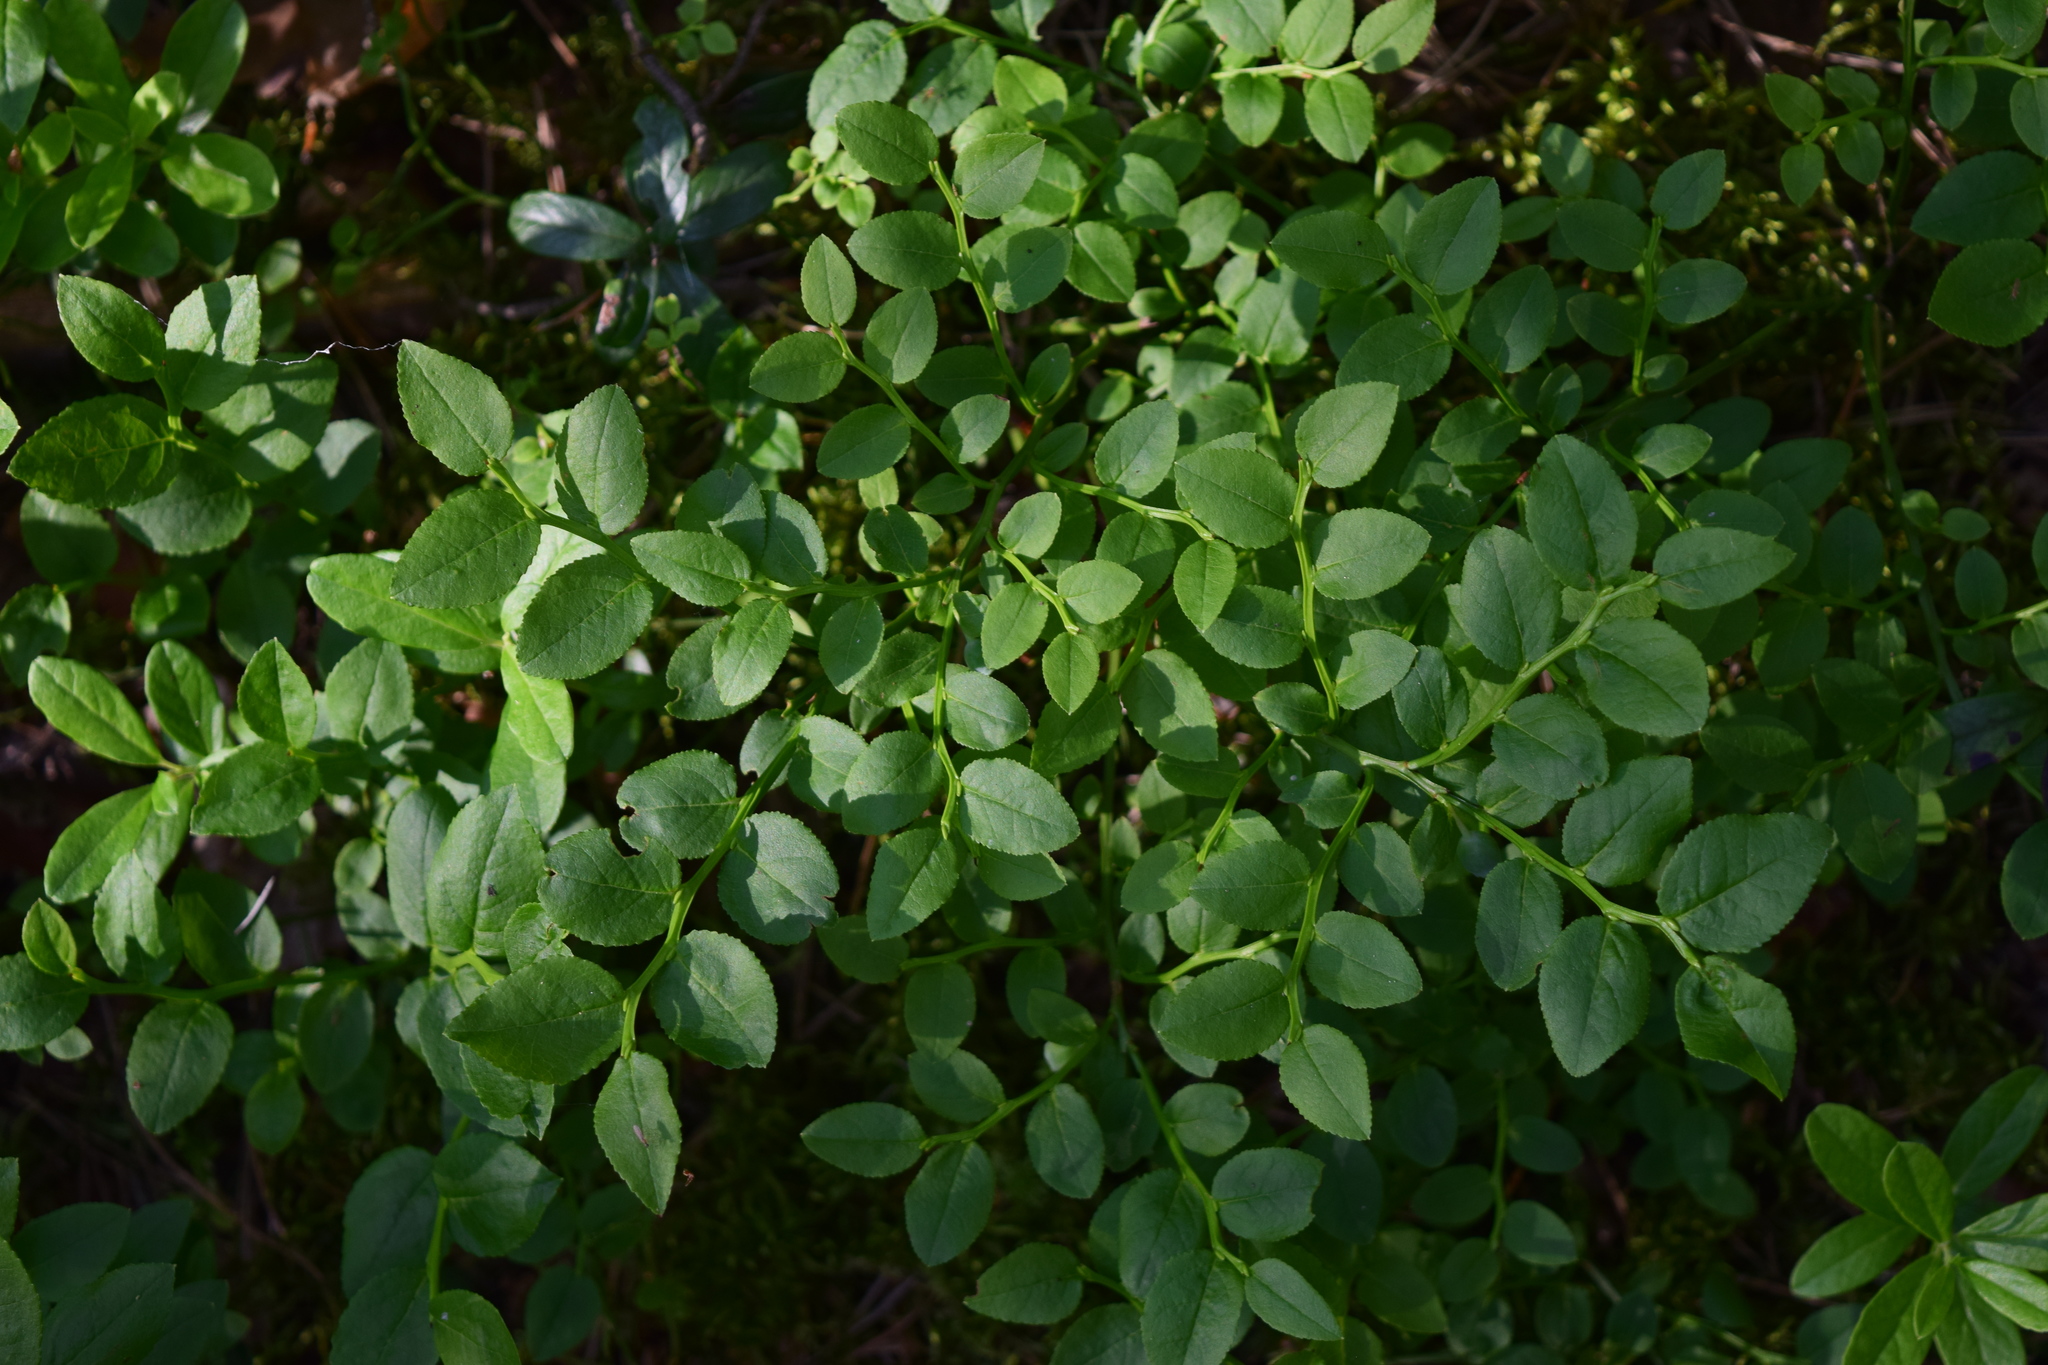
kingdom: Plantae
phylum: Tracheophyta
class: Magnoliopsida
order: Ericales
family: Ericaceae
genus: Vaccinium
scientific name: Vaccinium myrtillus
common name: Bilberry
